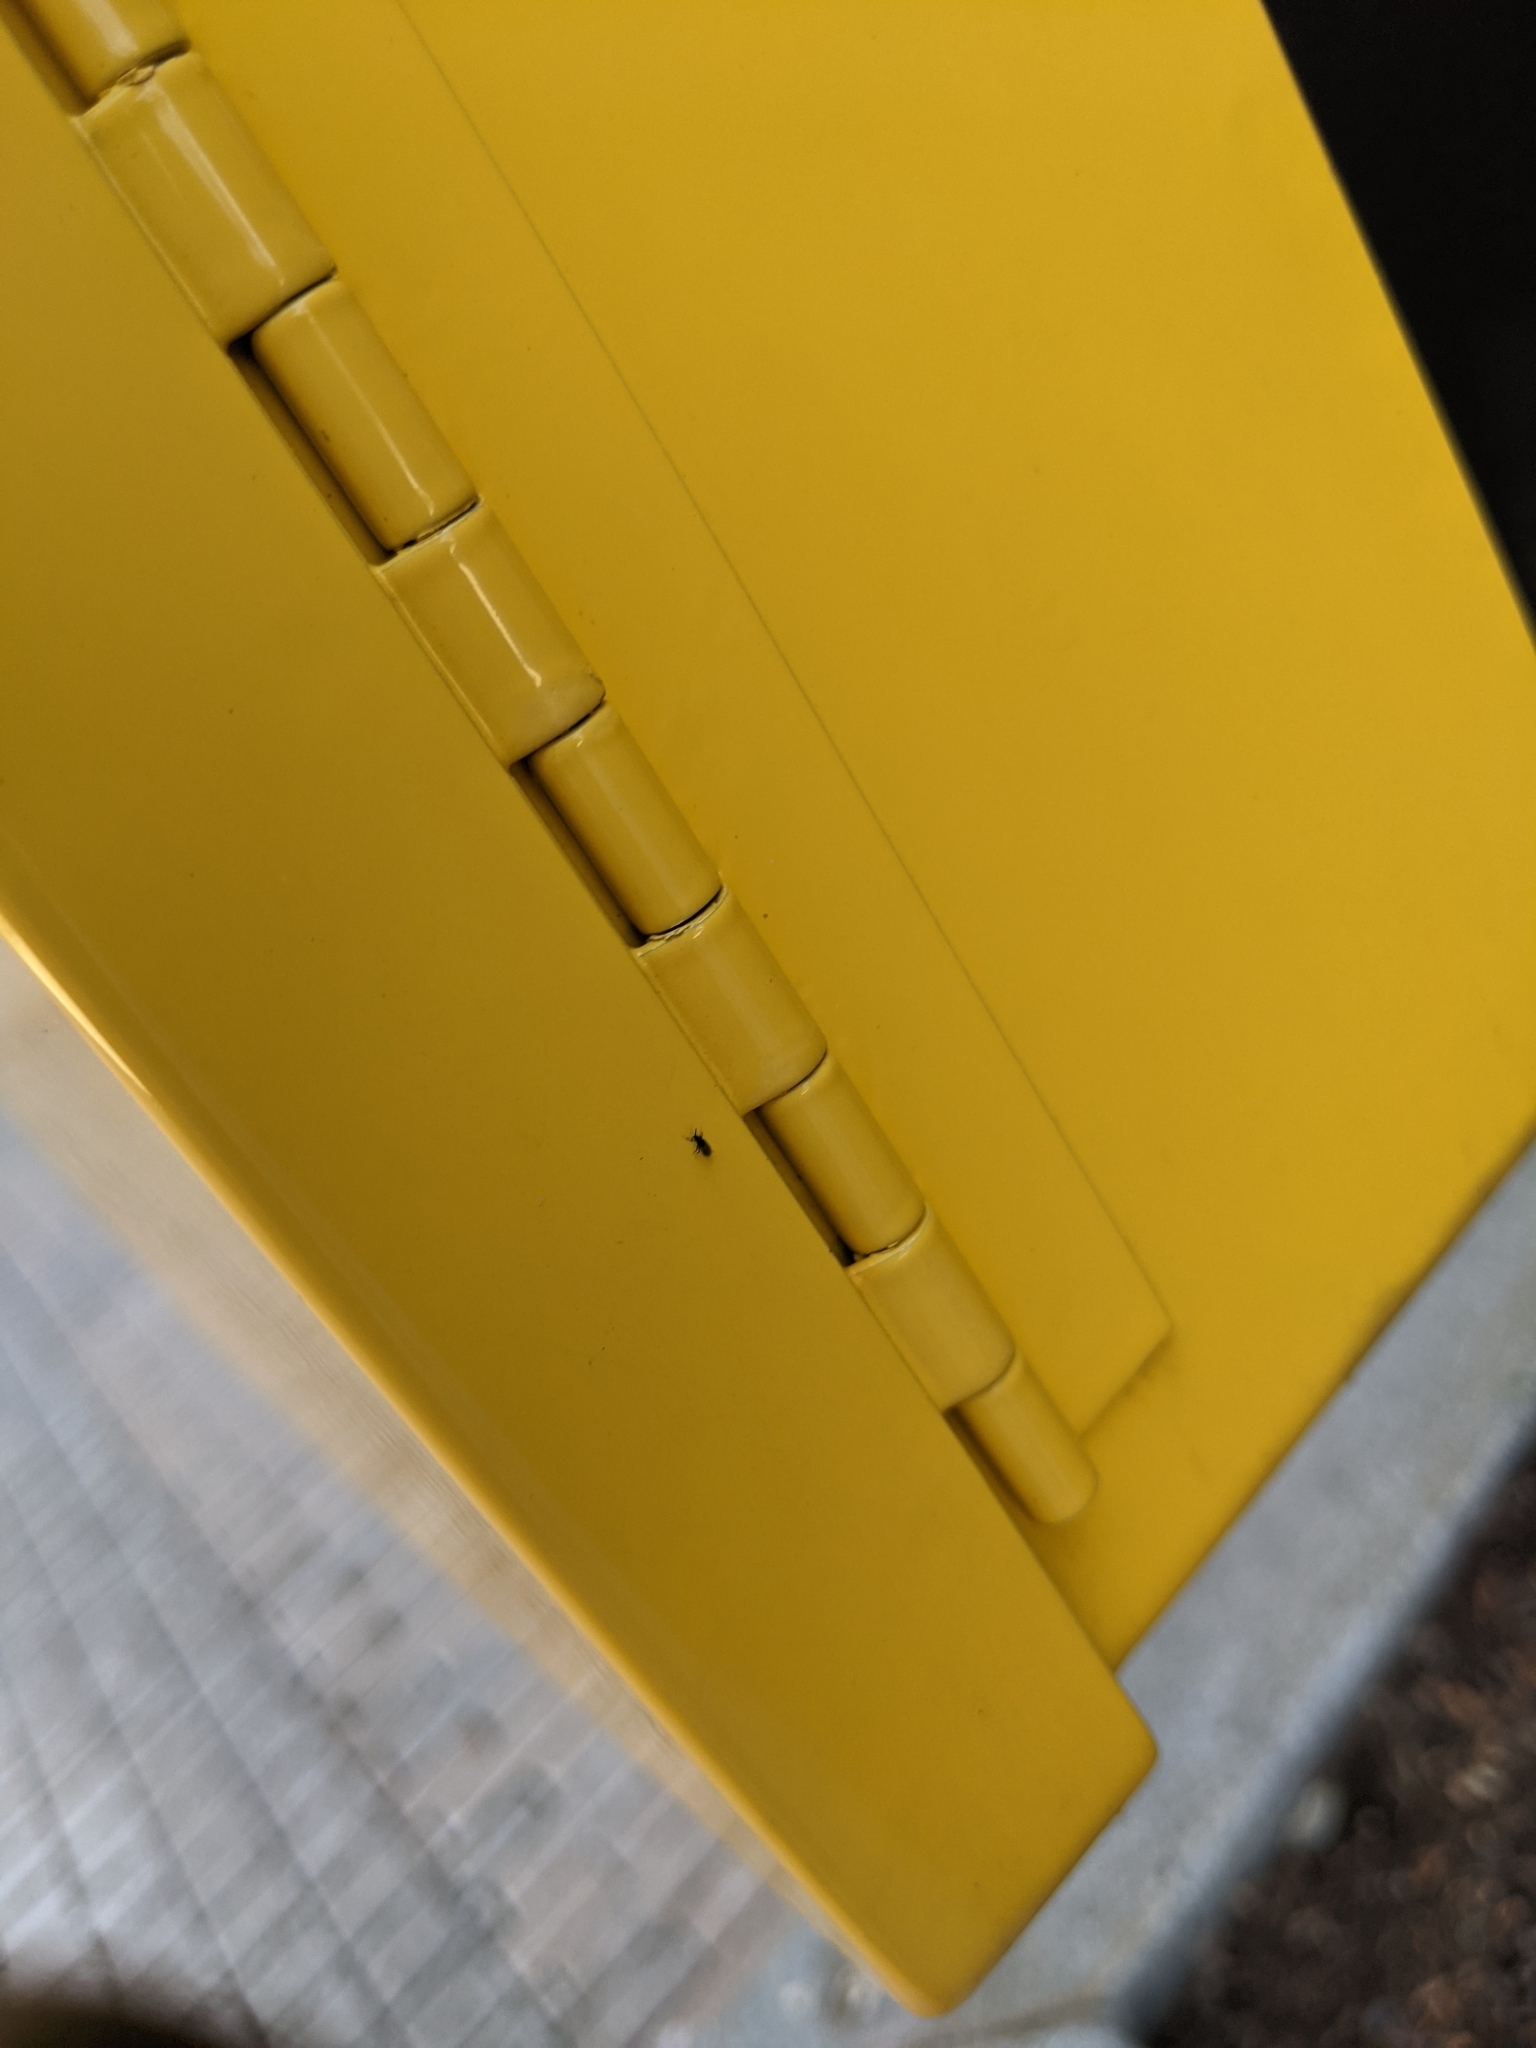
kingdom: Animalia
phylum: Arthropoda
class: Insecta
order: Diptera
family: Scatopsidae
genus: Holoplagia
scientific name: Holoplagia guamensis
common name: Fly
